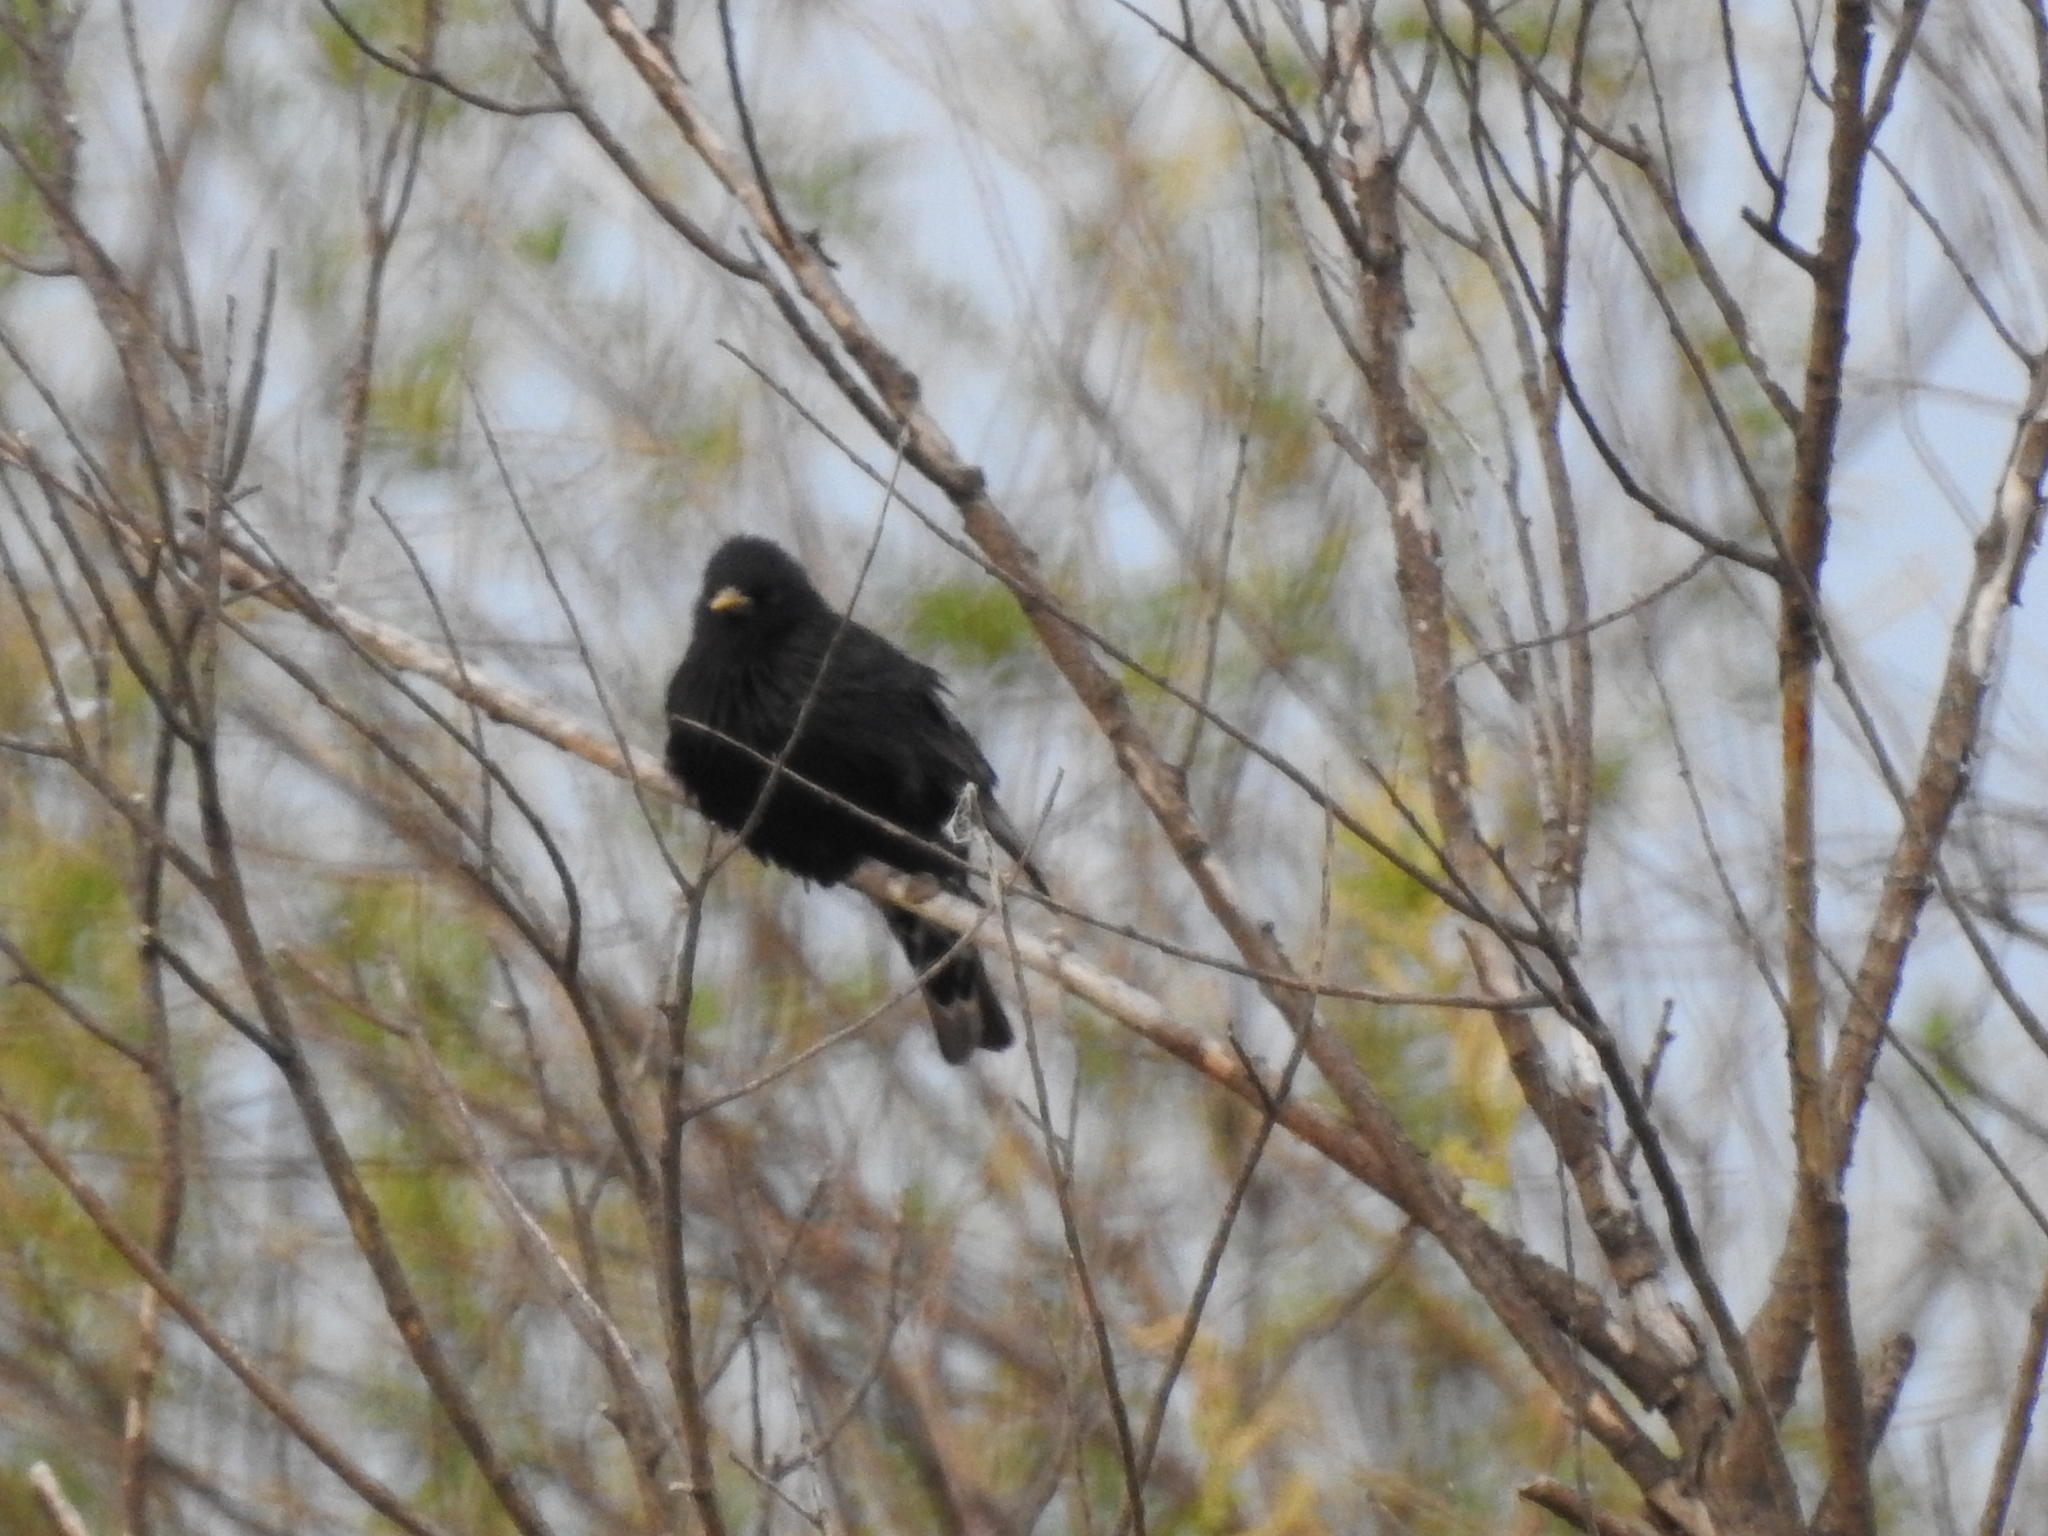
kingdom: Animalia
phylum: Chordata
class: Aves
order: Passeriformes
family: Sturnidae
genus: Sturnus
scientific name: Sturnus vulgaris
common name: Common starling
